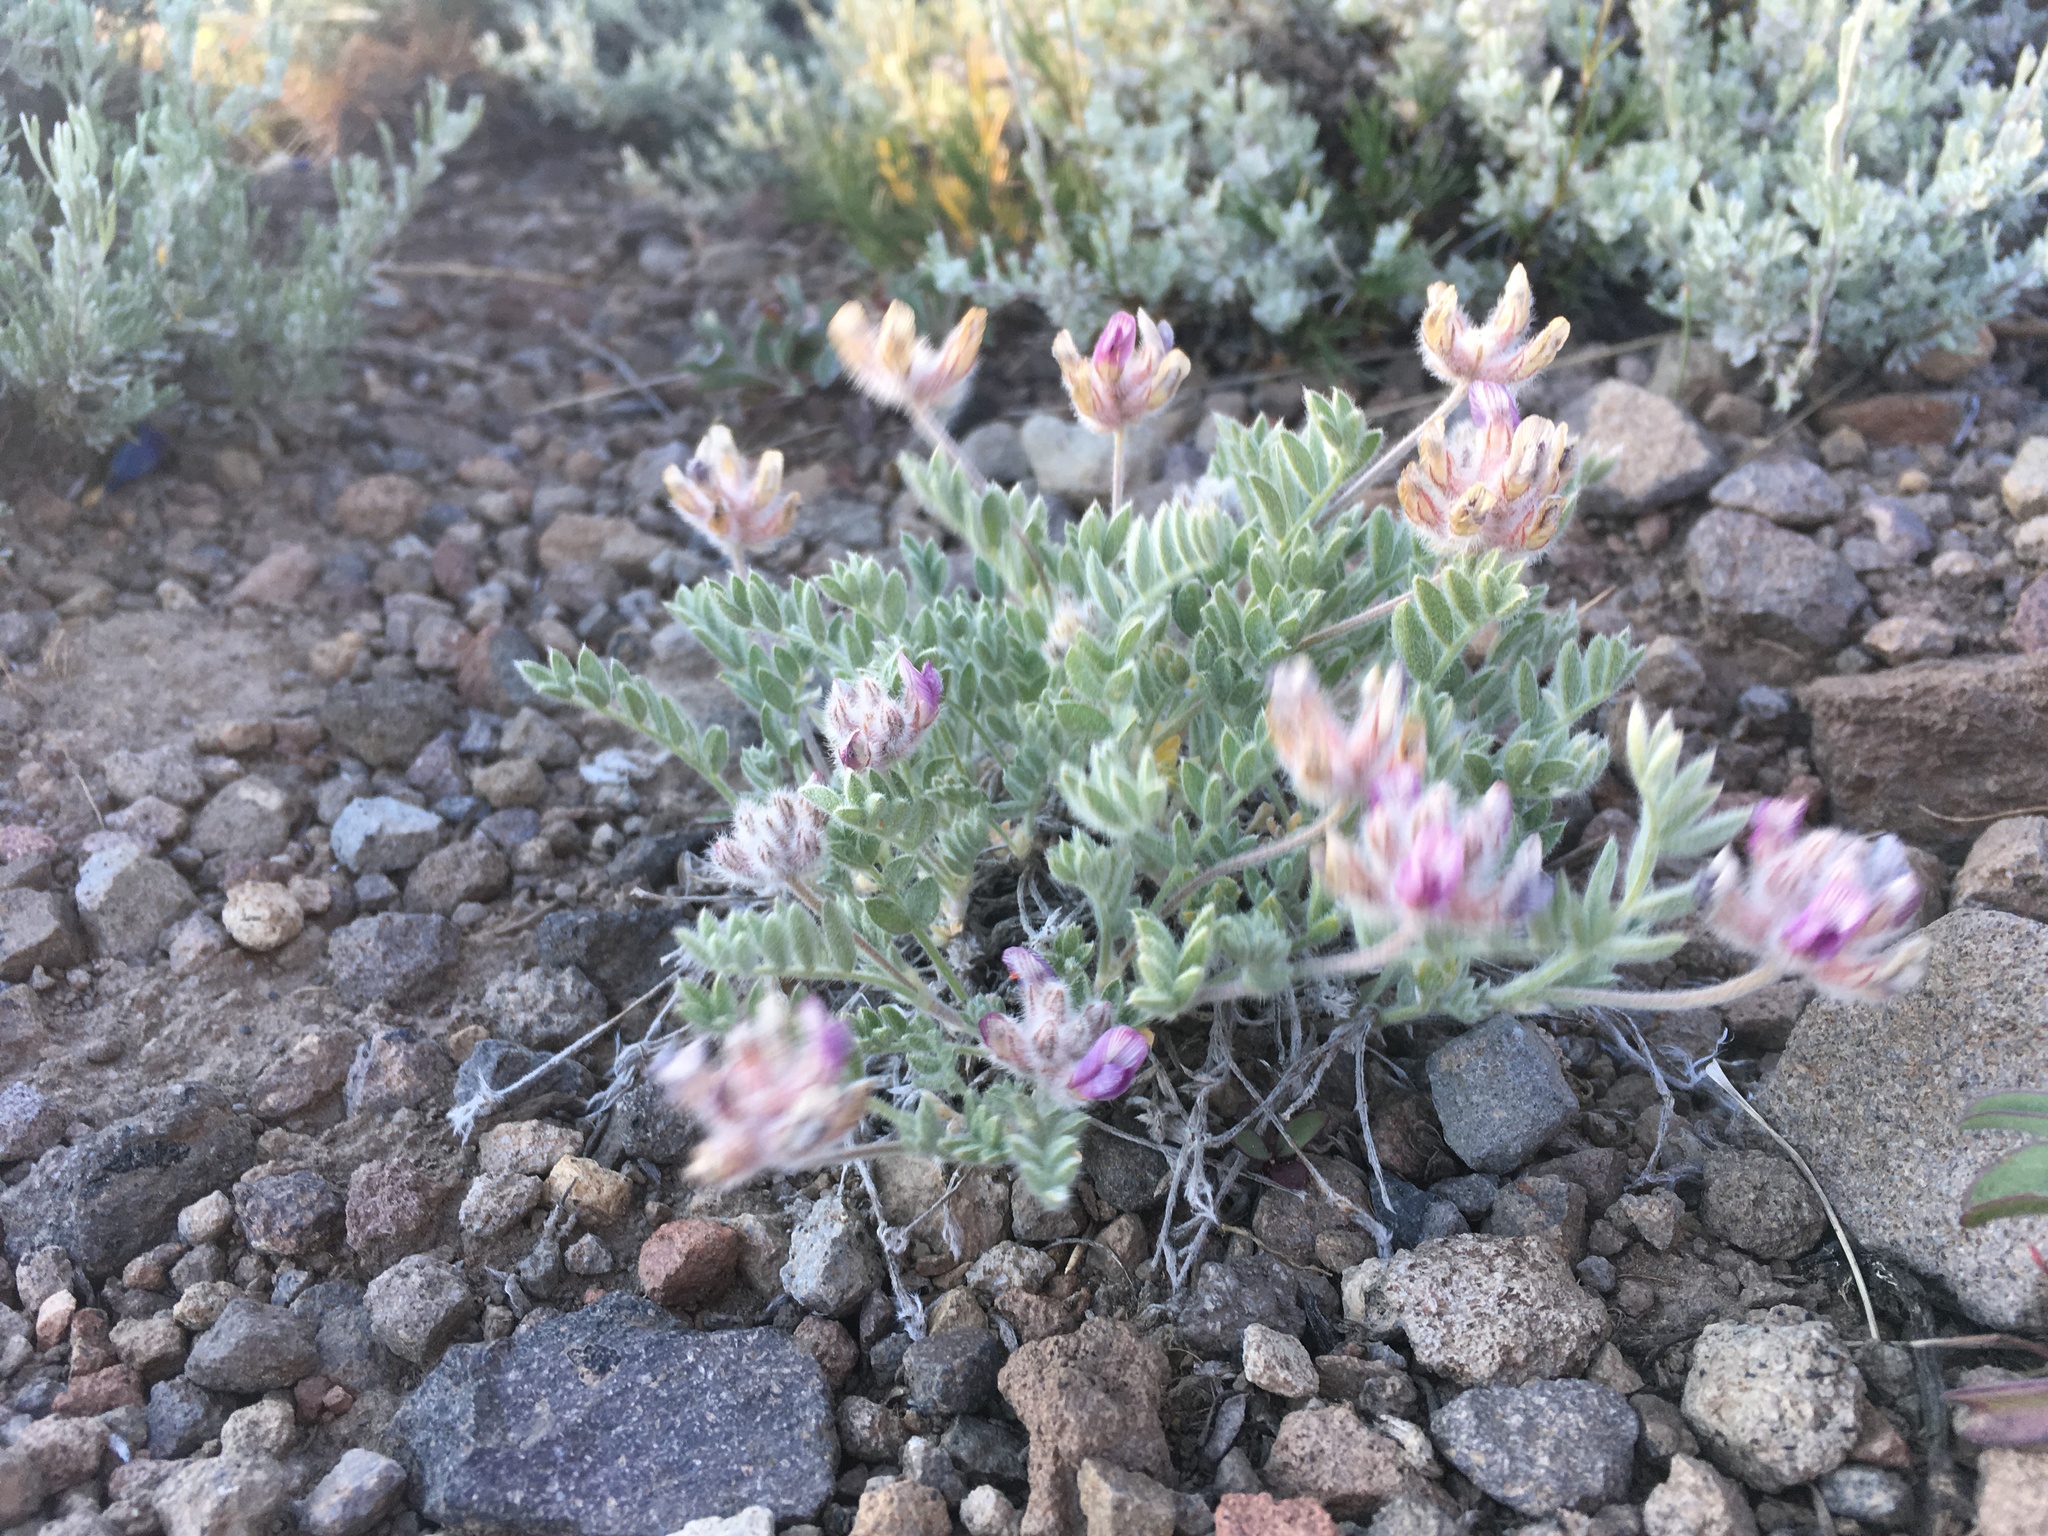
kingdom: Plantae
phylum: Tracheophyta
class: Magnoliopsida
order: Fabales
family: Fabaceae
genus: Astragalus
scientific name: Astragalus austiniae
